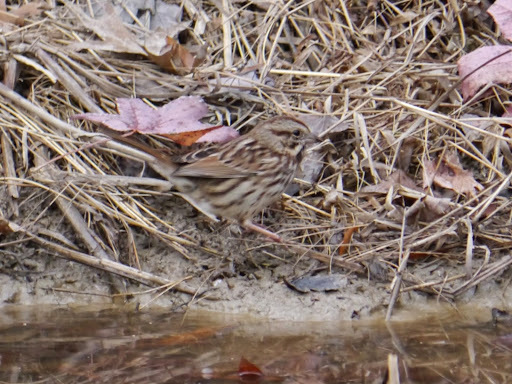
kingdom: Animalia
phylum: Chordata
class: Aves
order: Passeriformes
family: Passerellidae
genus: Melospiza
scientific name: Melospiza melodia
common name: Song sparrow
